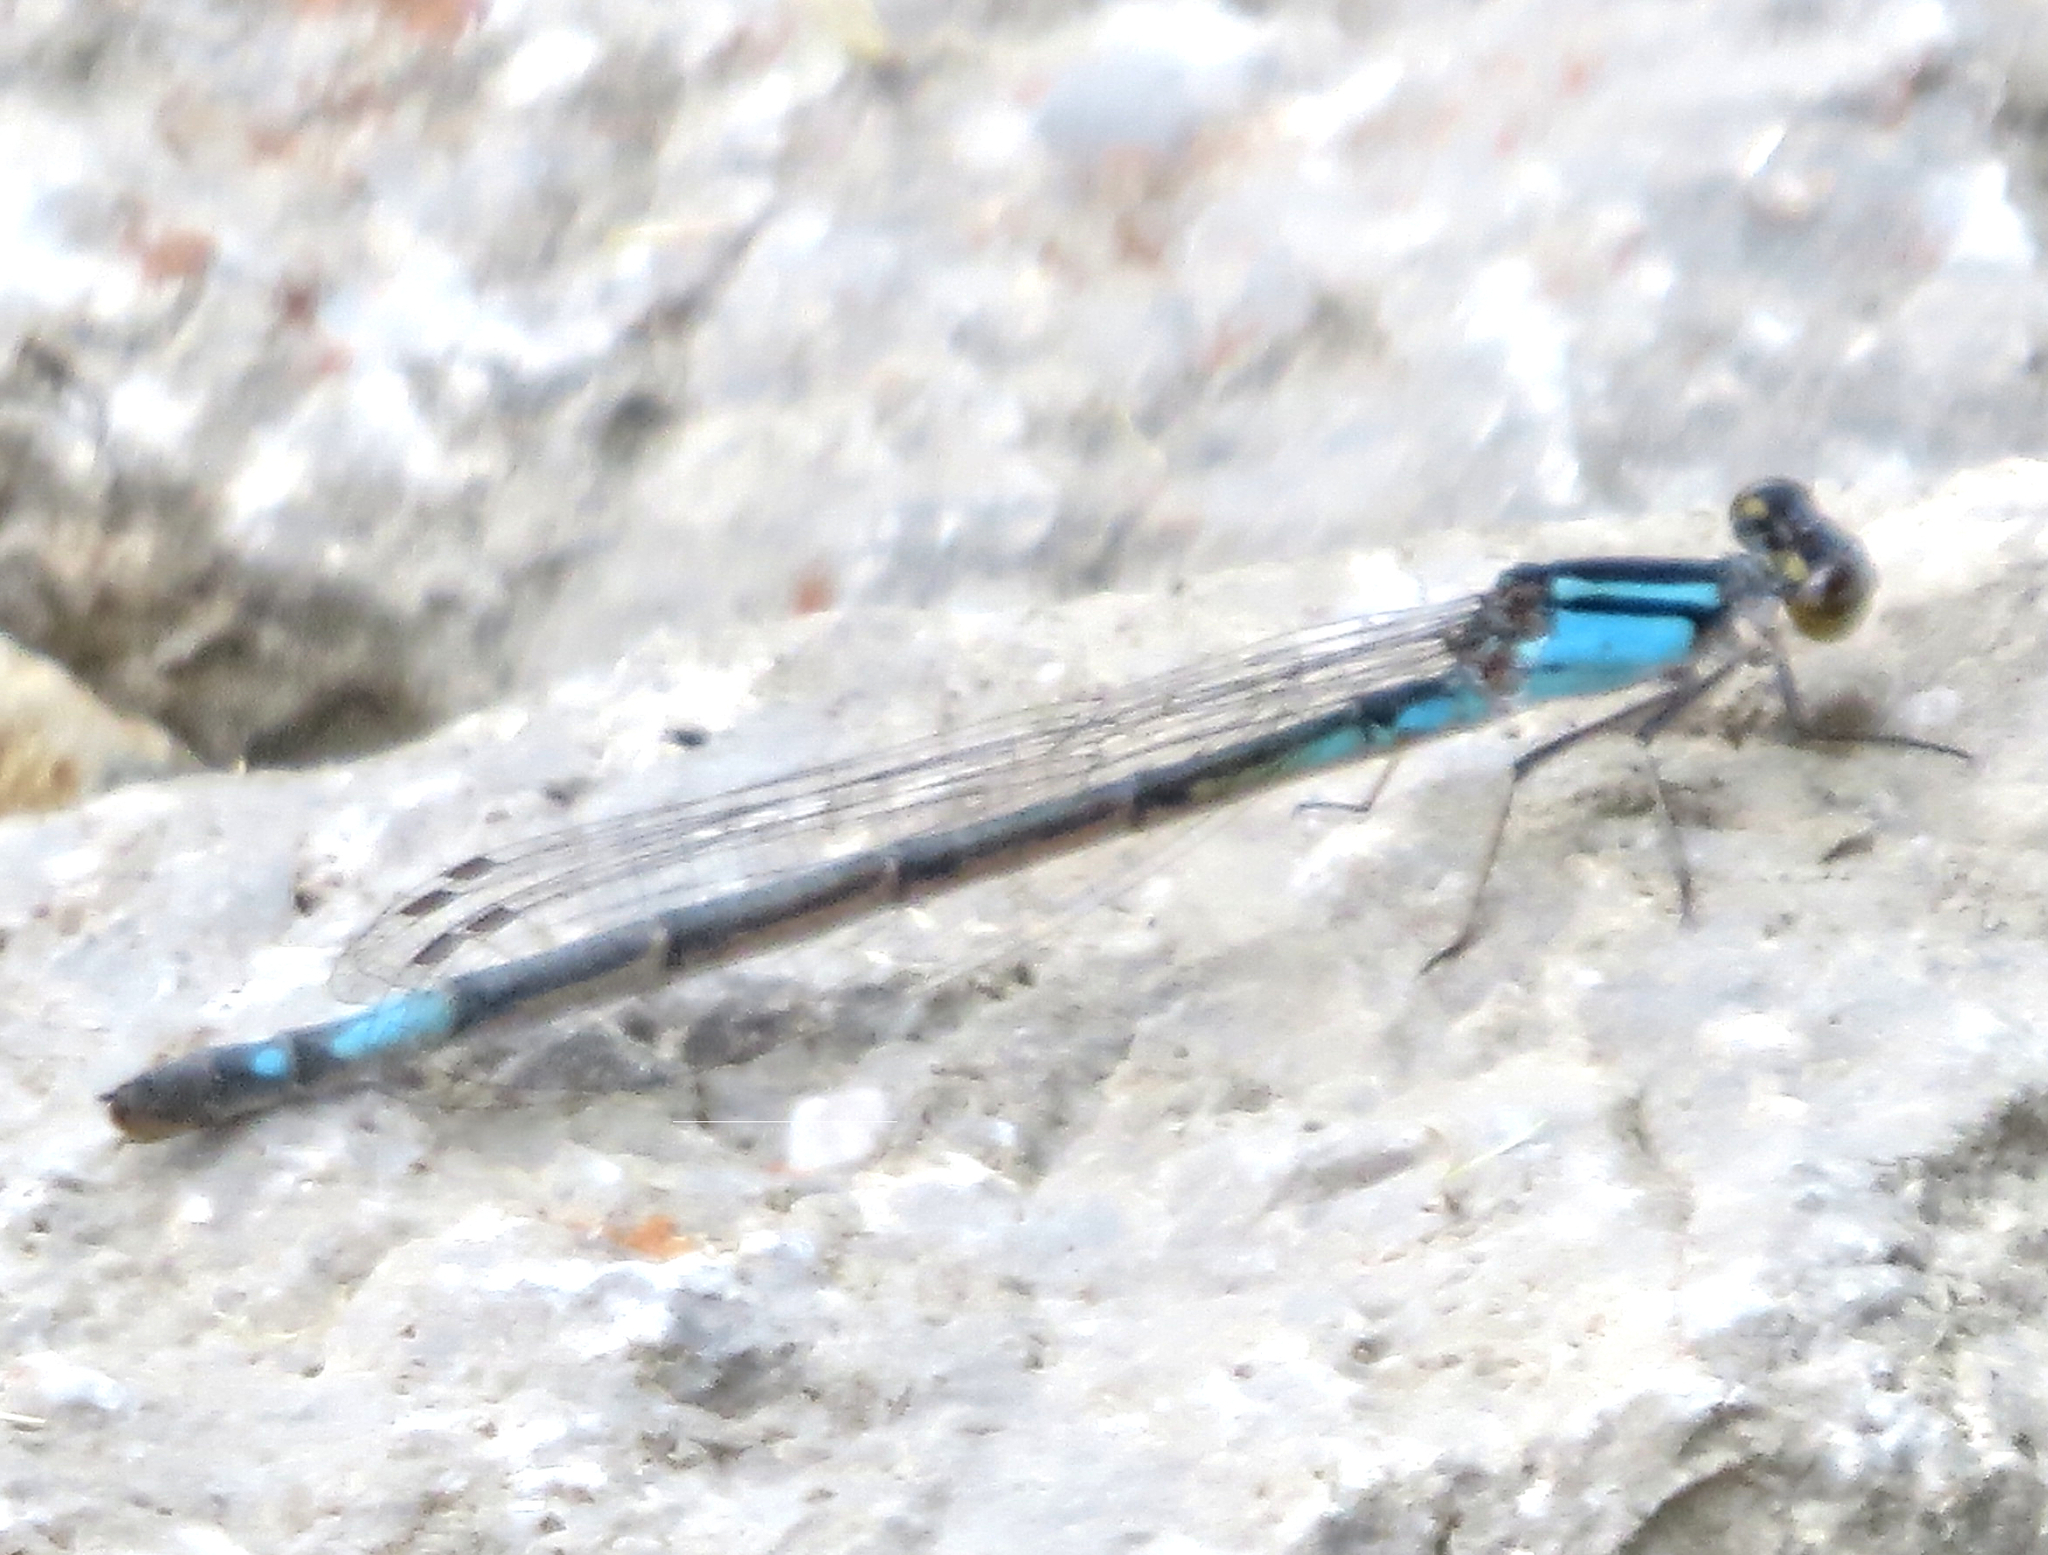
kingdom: Animalia
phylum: Arthropoda
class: Insecta
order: Odonata
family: Coenagrionidae
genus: Enallagma
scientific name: Enallagma aspersum
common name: Azure bluet
